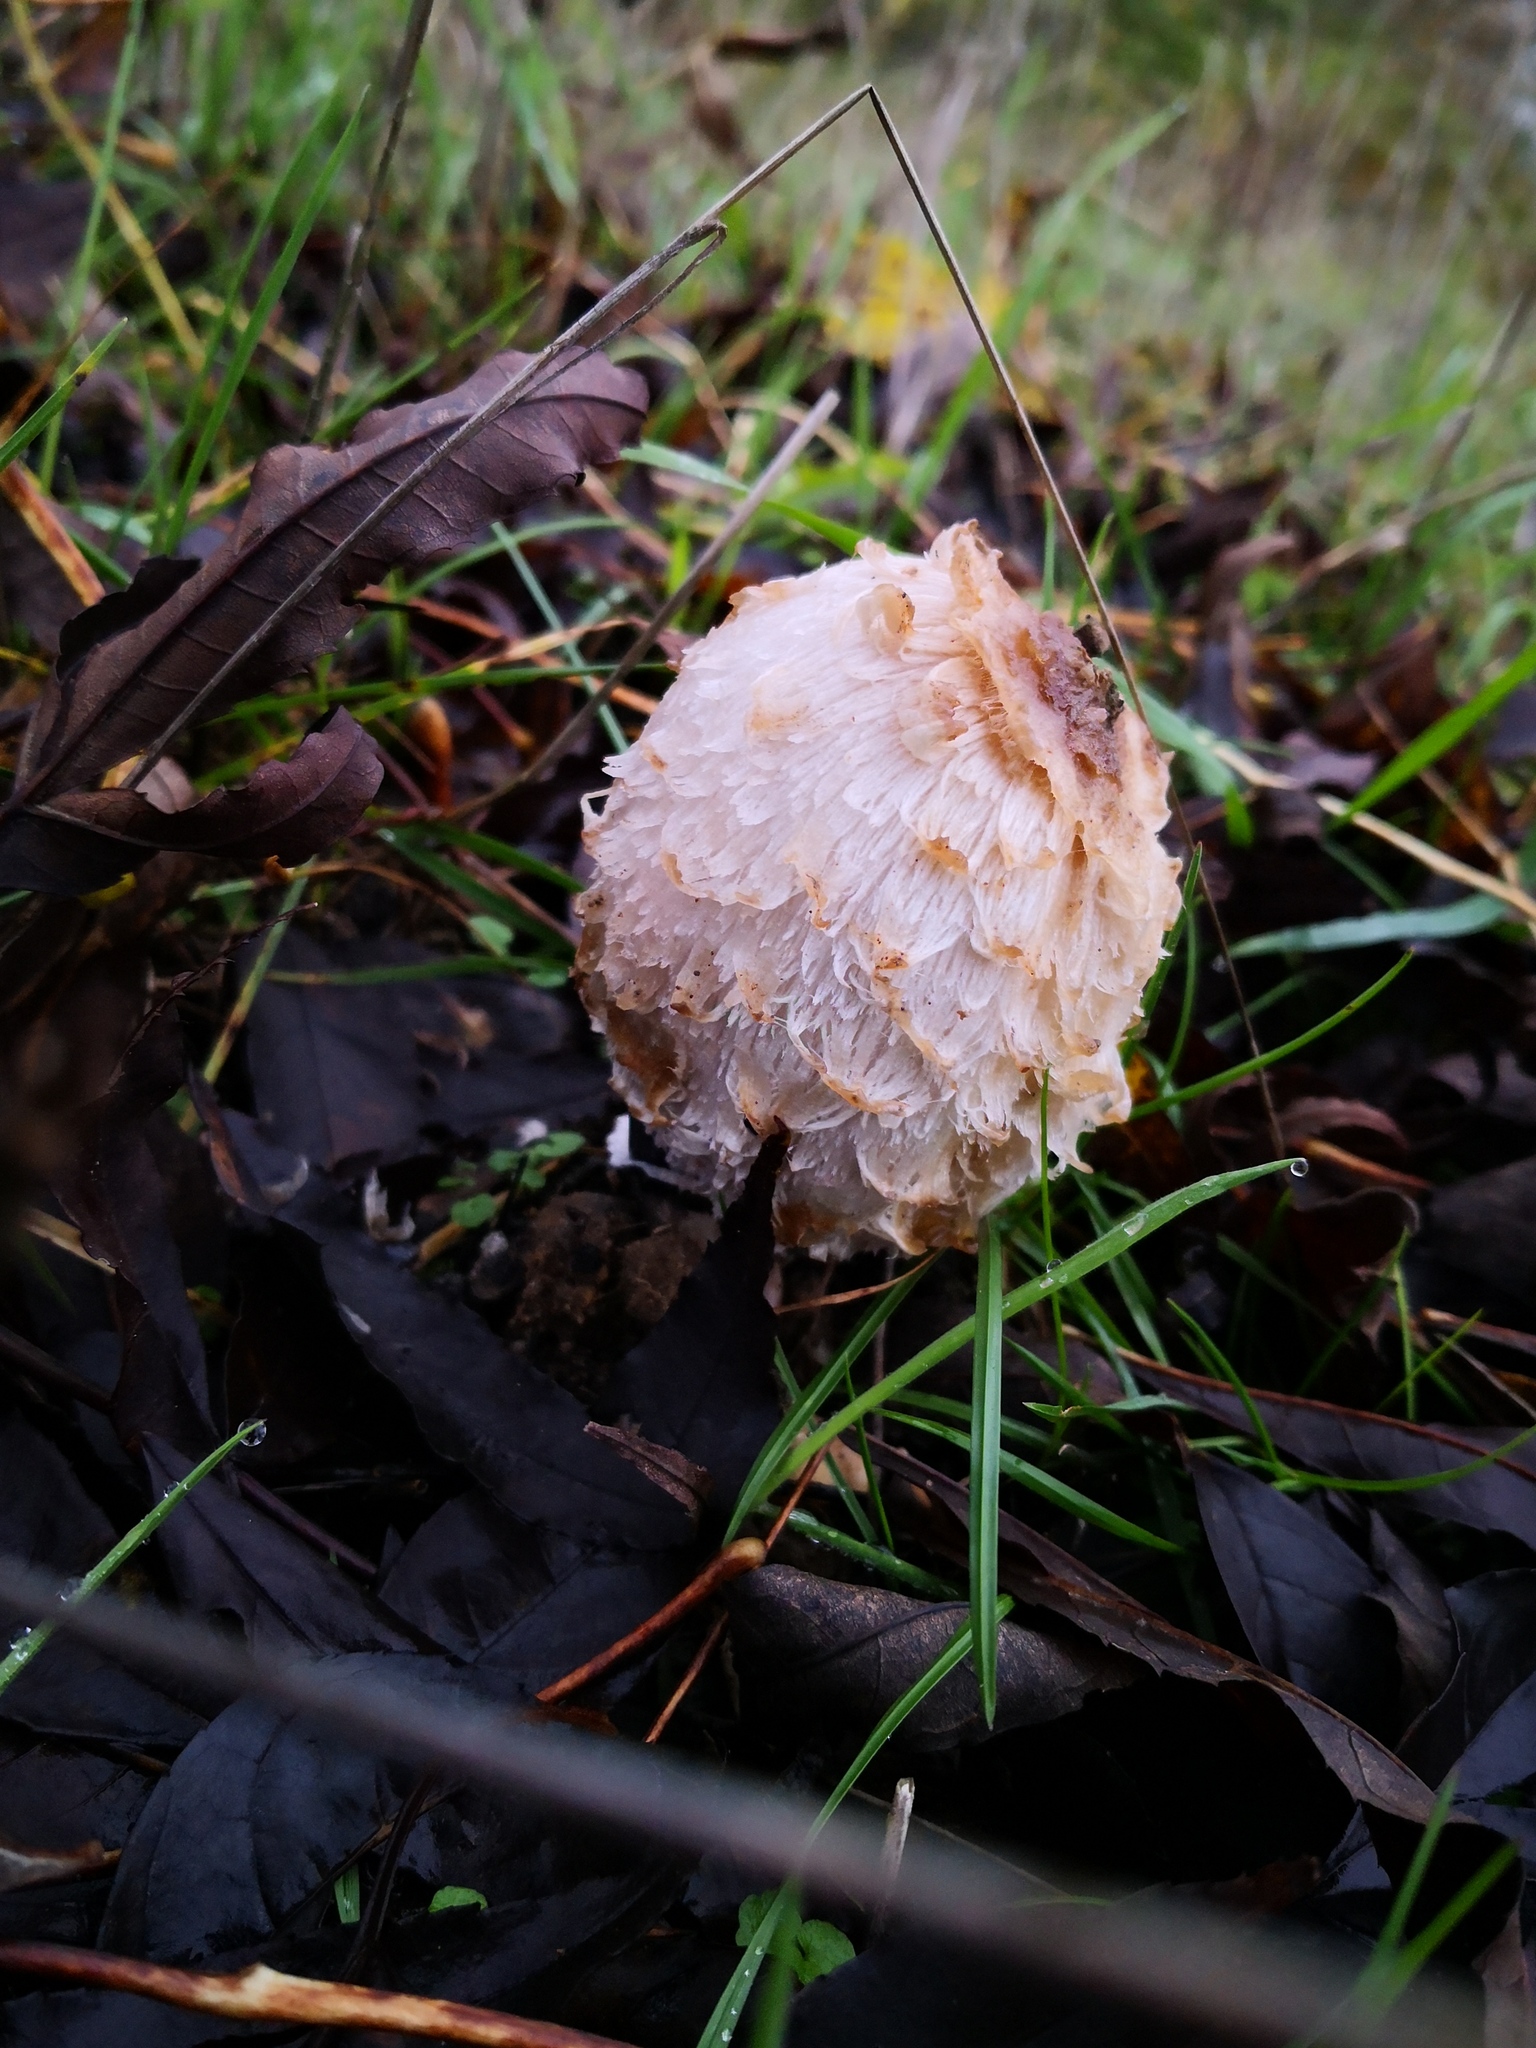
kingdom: Fungi
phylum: Basidiomycota
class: Agaricomycetes
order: Agaricales
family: Agaricaceae
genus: Coprinus
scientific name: Coprinus comatus
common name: Lawyer's wig
